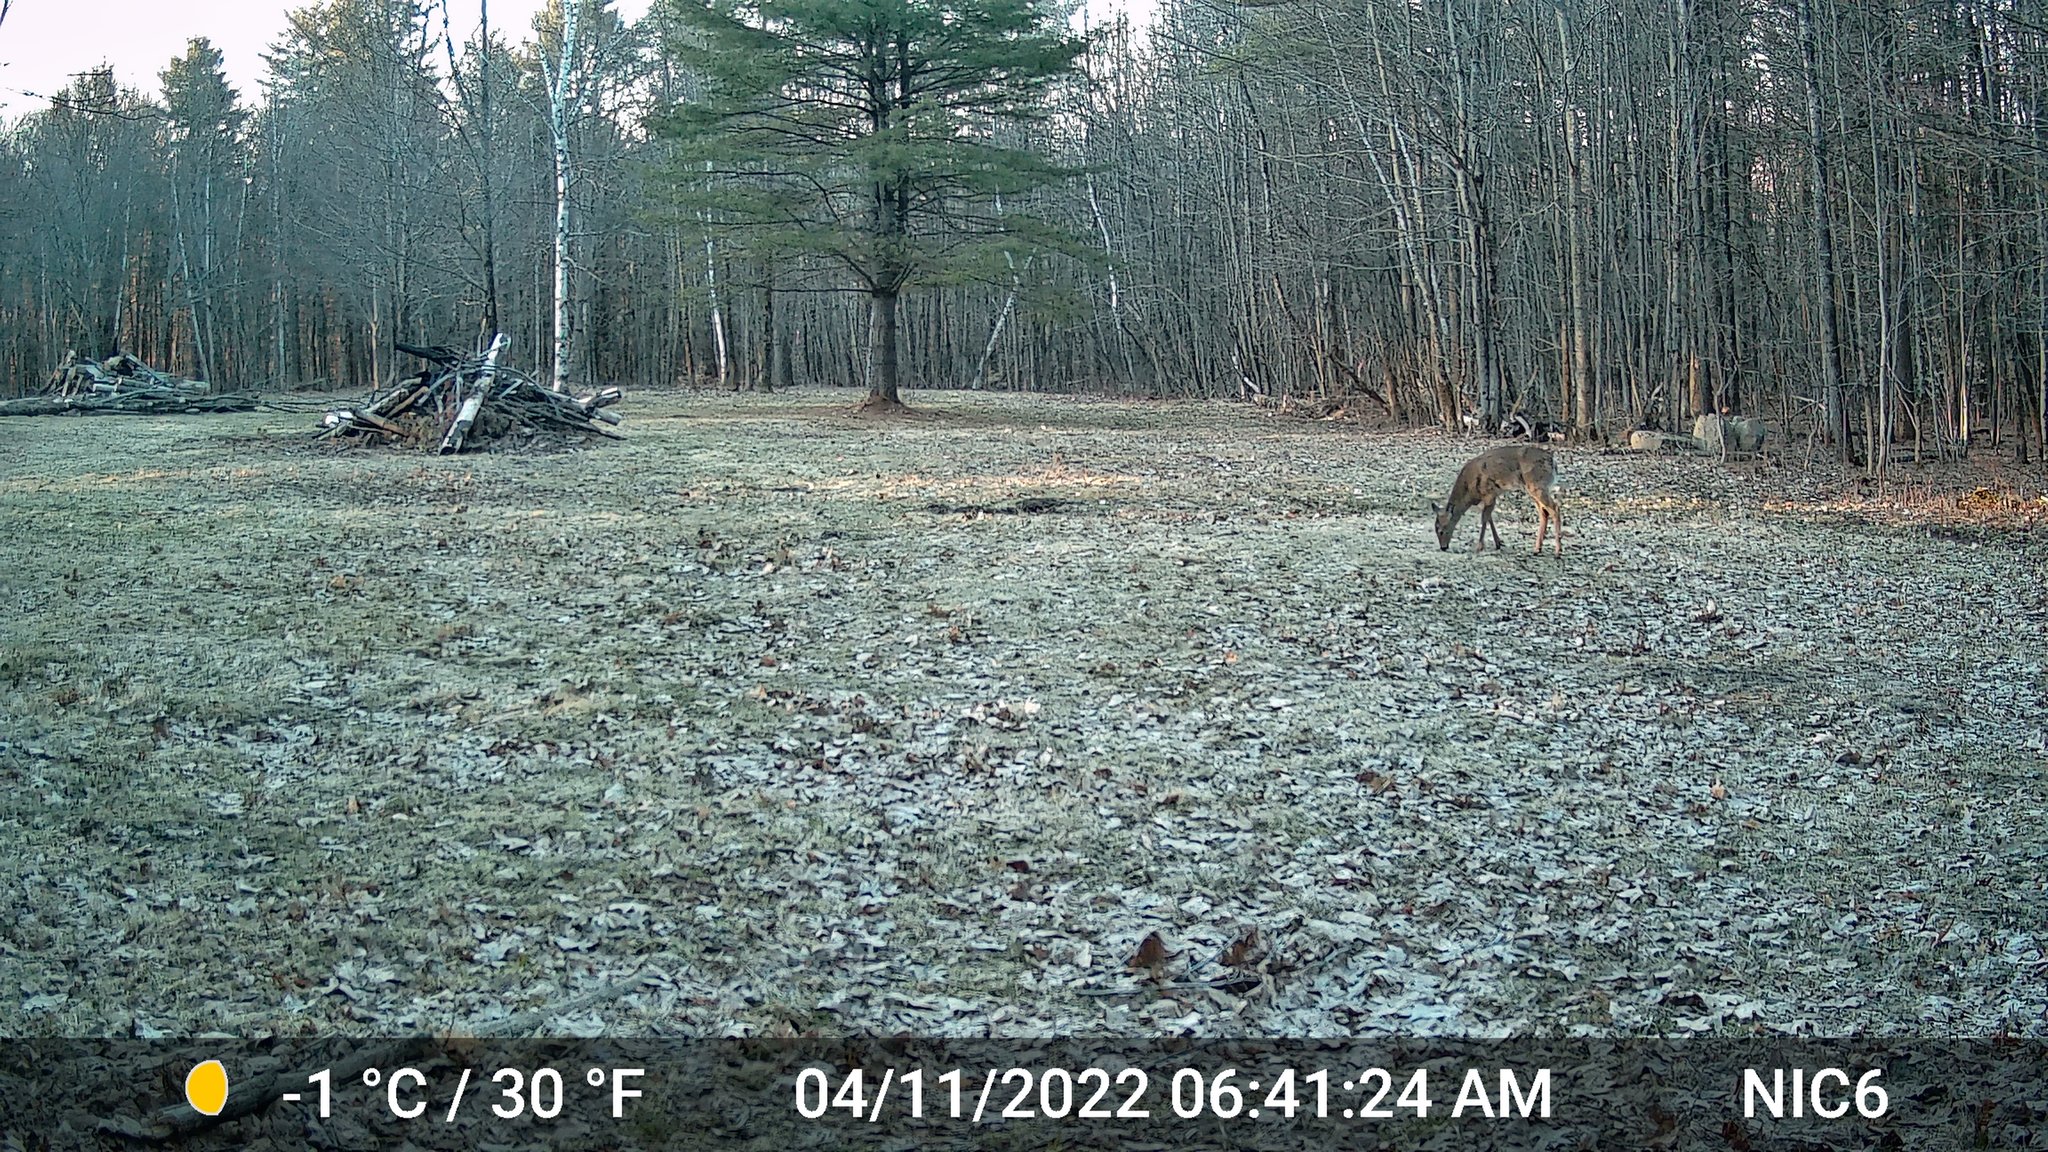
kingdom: Animalia
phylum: Chordata
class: Mammalia
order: Artiodactyla
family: Cervidae
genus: Odocoileus
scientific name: Odocoileus virginianus
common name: White-tailed deer
